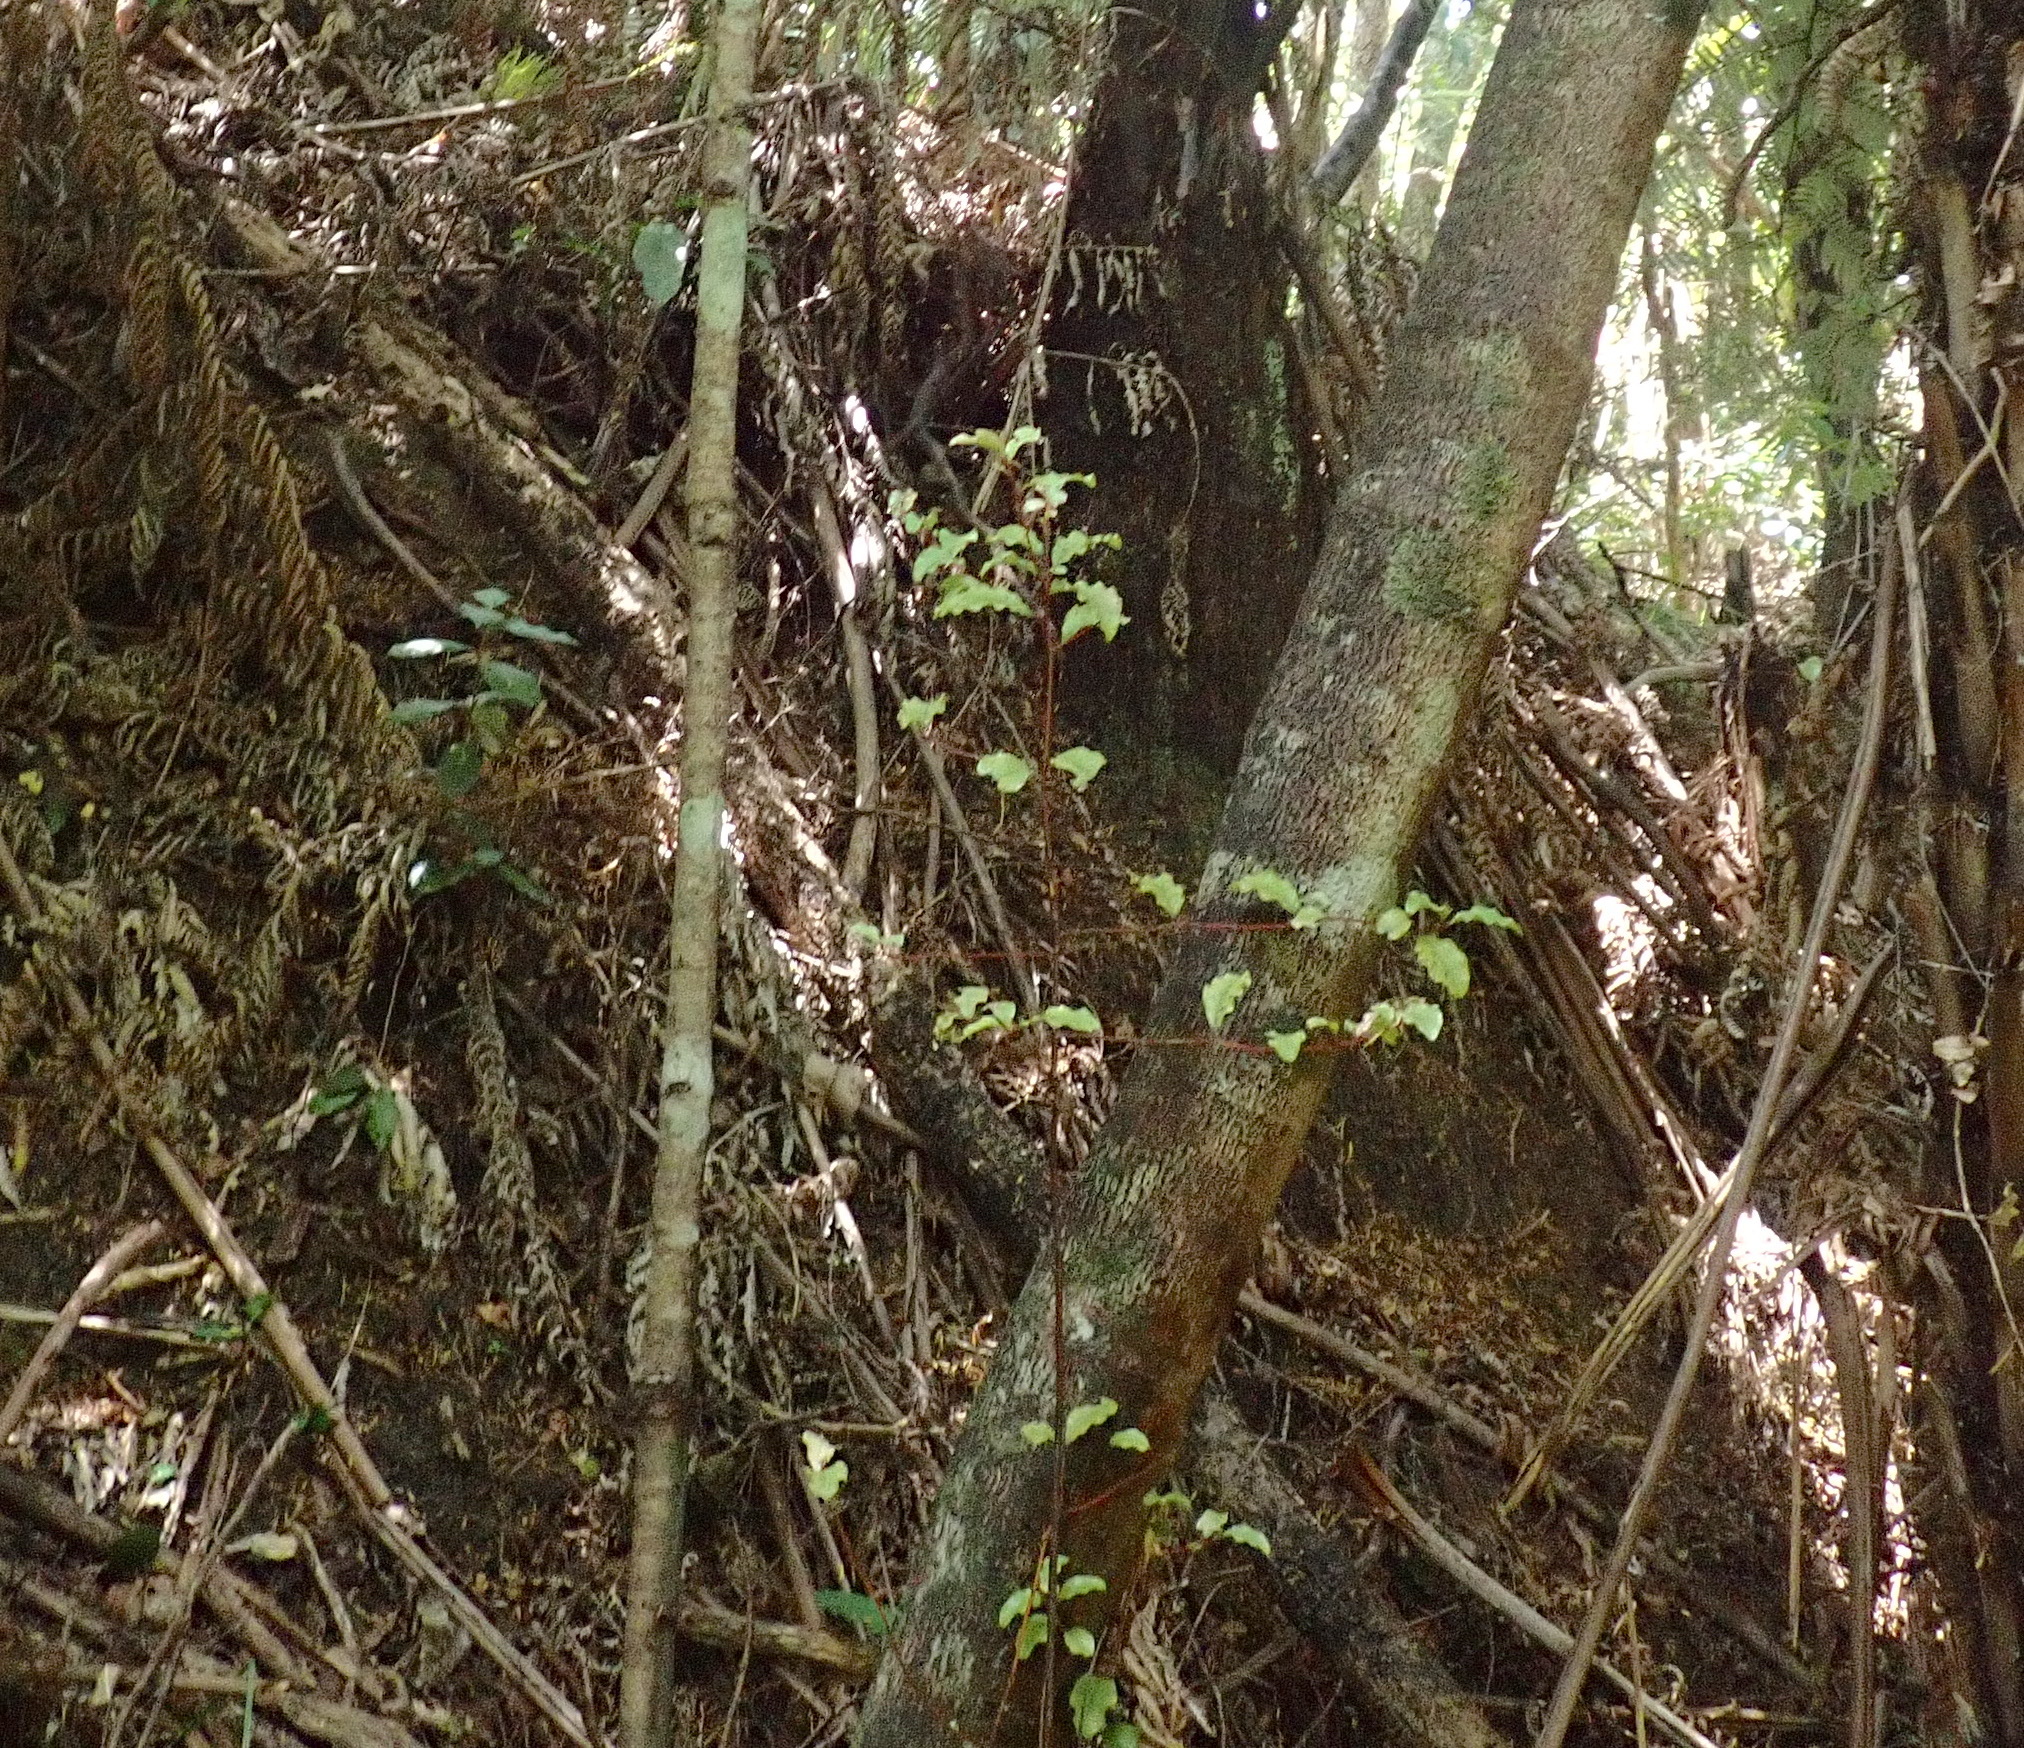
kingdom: Plantae
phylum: Tracheophyta
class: Magnoliopsida
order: Ericales
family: Primulaceae
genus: Myrsine
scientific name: Myrsine australis
